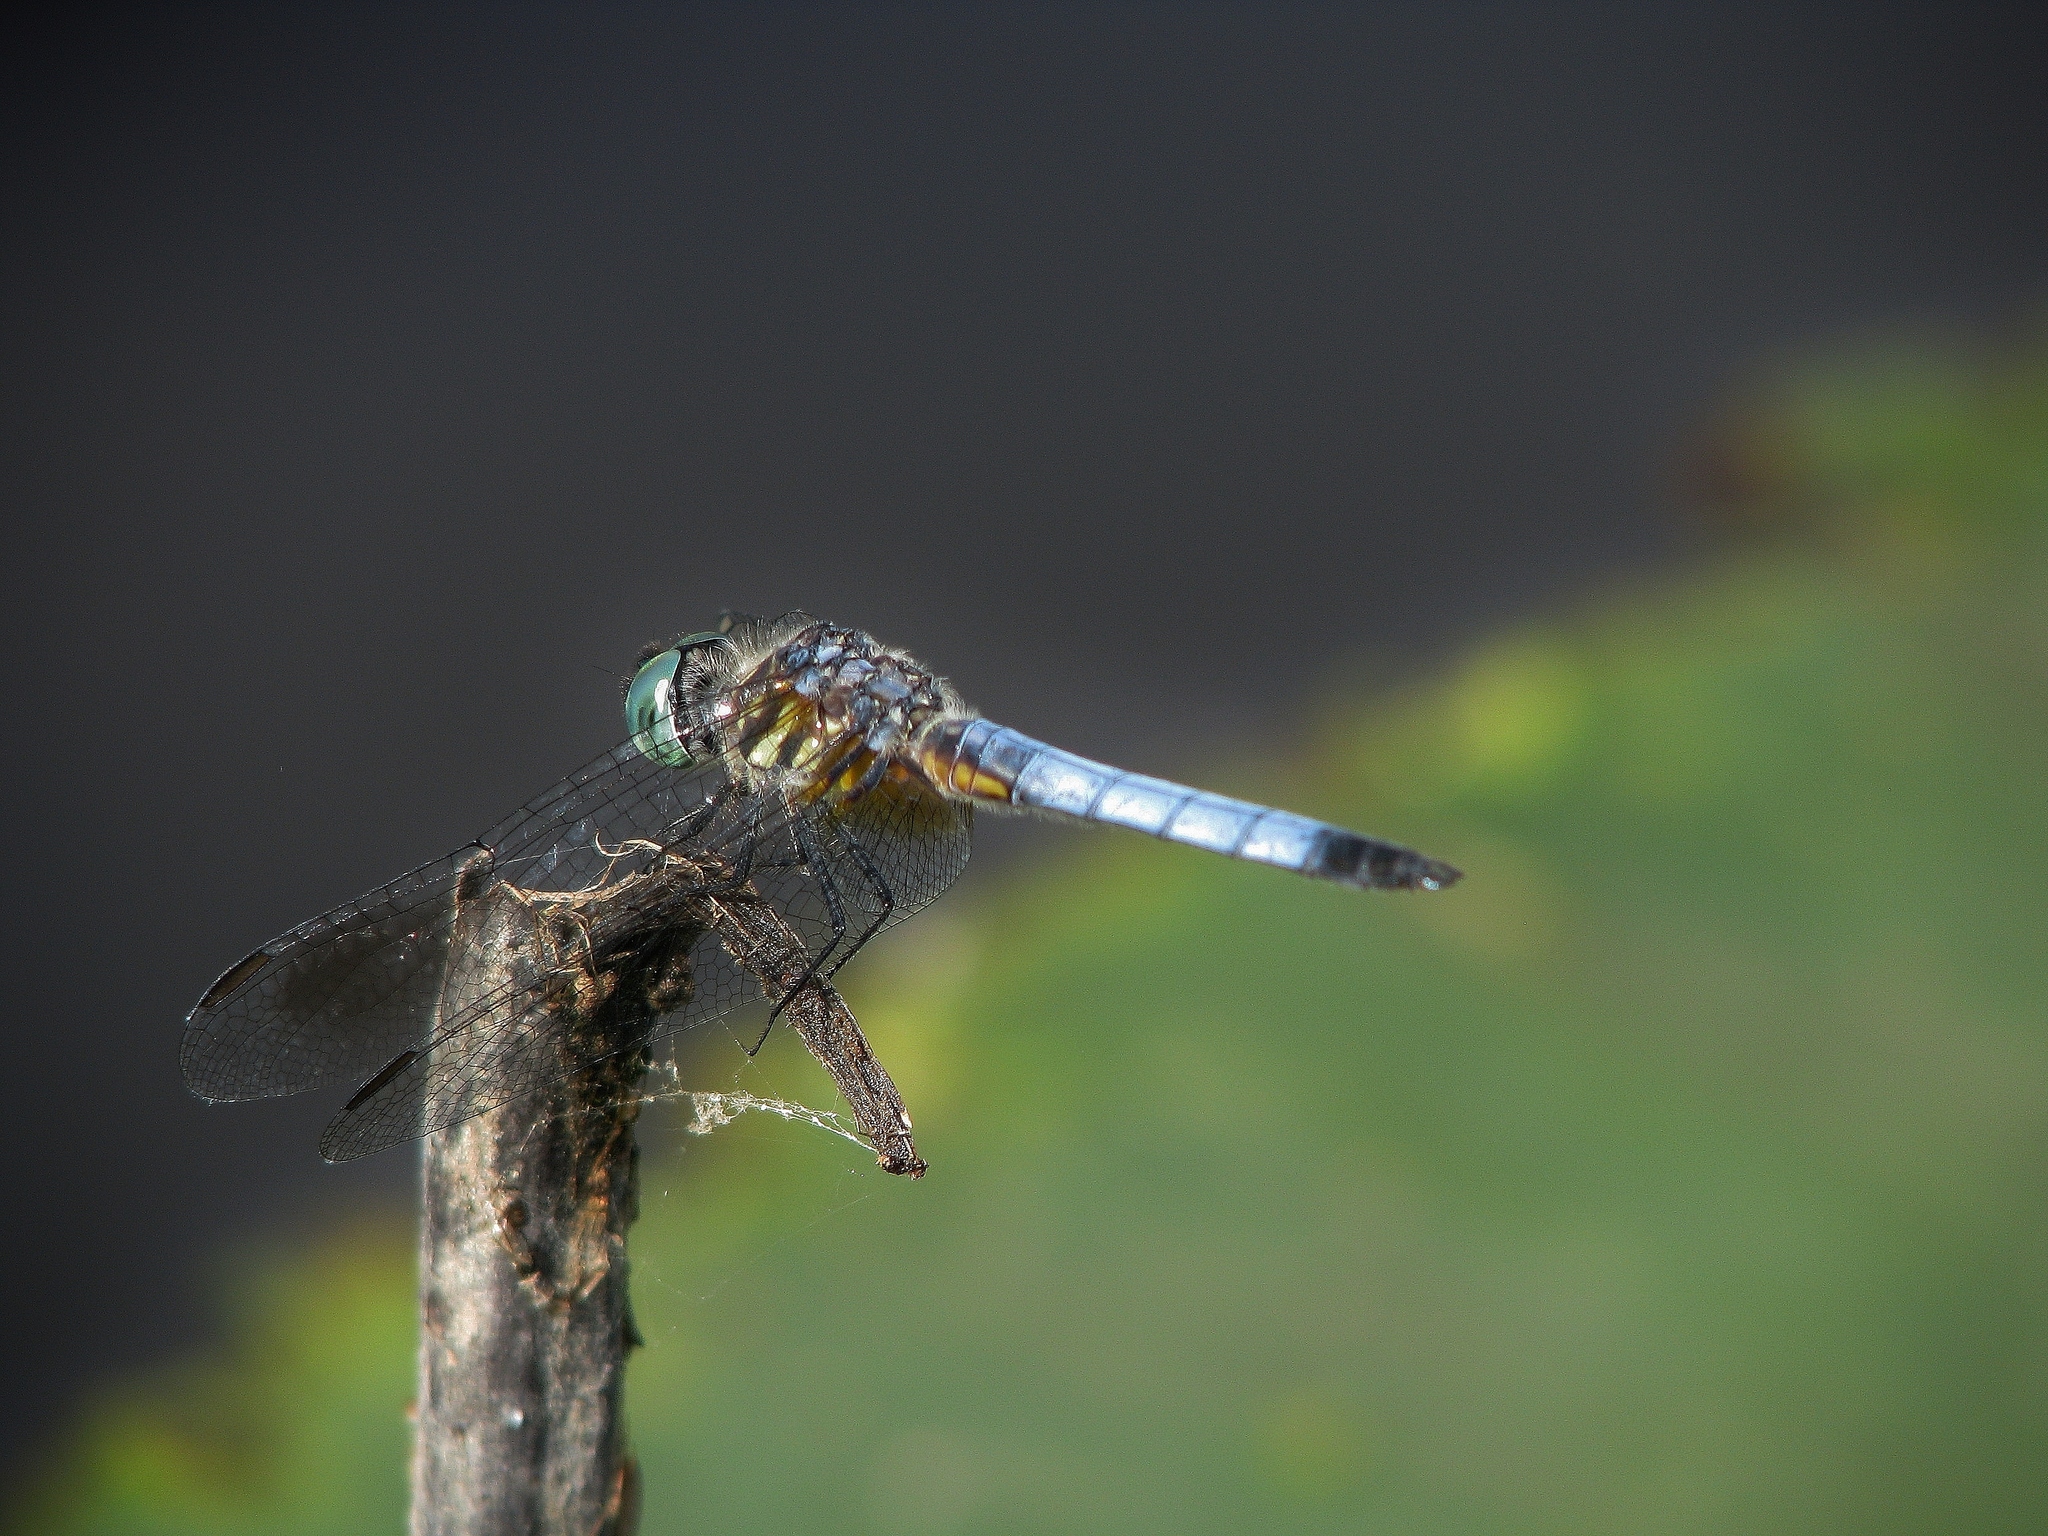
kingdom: Animalia
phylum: Arthropoda
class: Insecta
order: Odonata
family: Libellulidae
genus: Pachydiplax
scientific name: Pachydiplax longipennis
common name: Blue dasher
